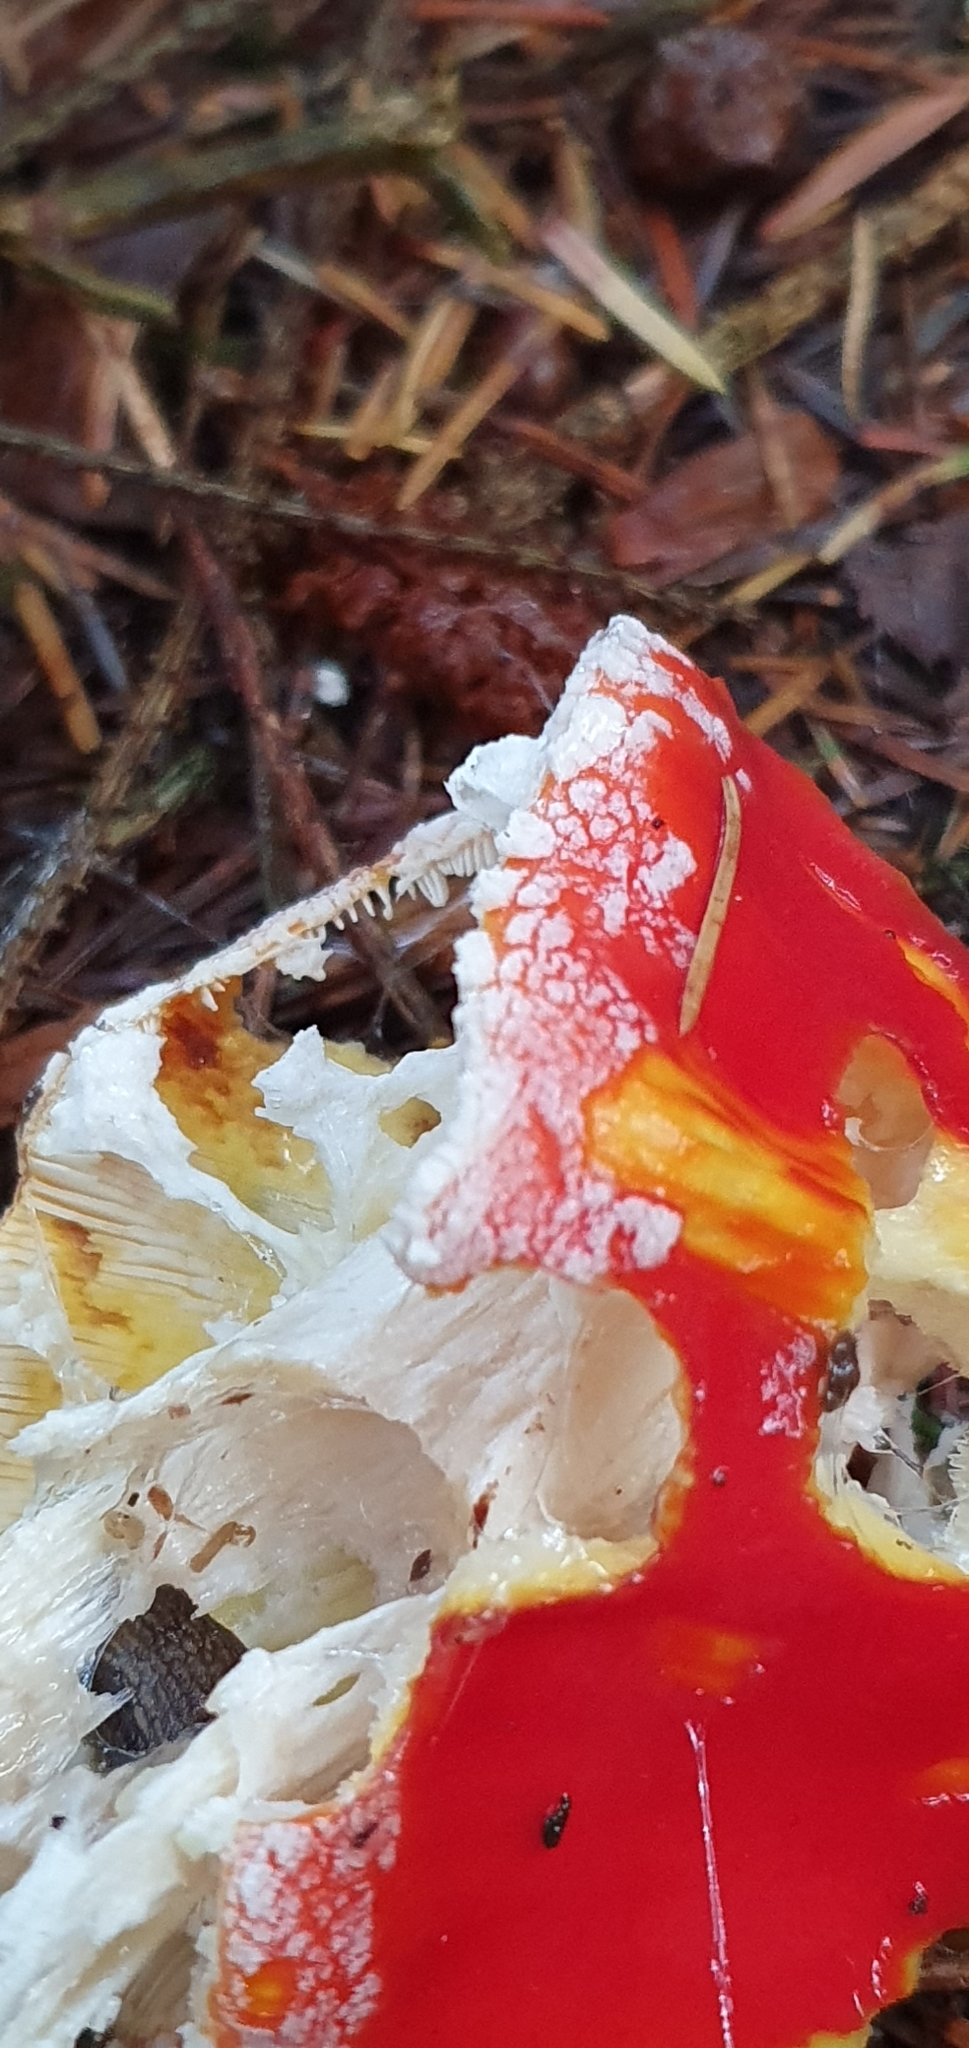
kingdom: Fungi
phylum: Basidiomycota
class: Agaricomycetes
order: Agaricales
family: Amanitaceae
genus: Amanita
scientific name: Amanita muscaria
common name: Fly agaric
